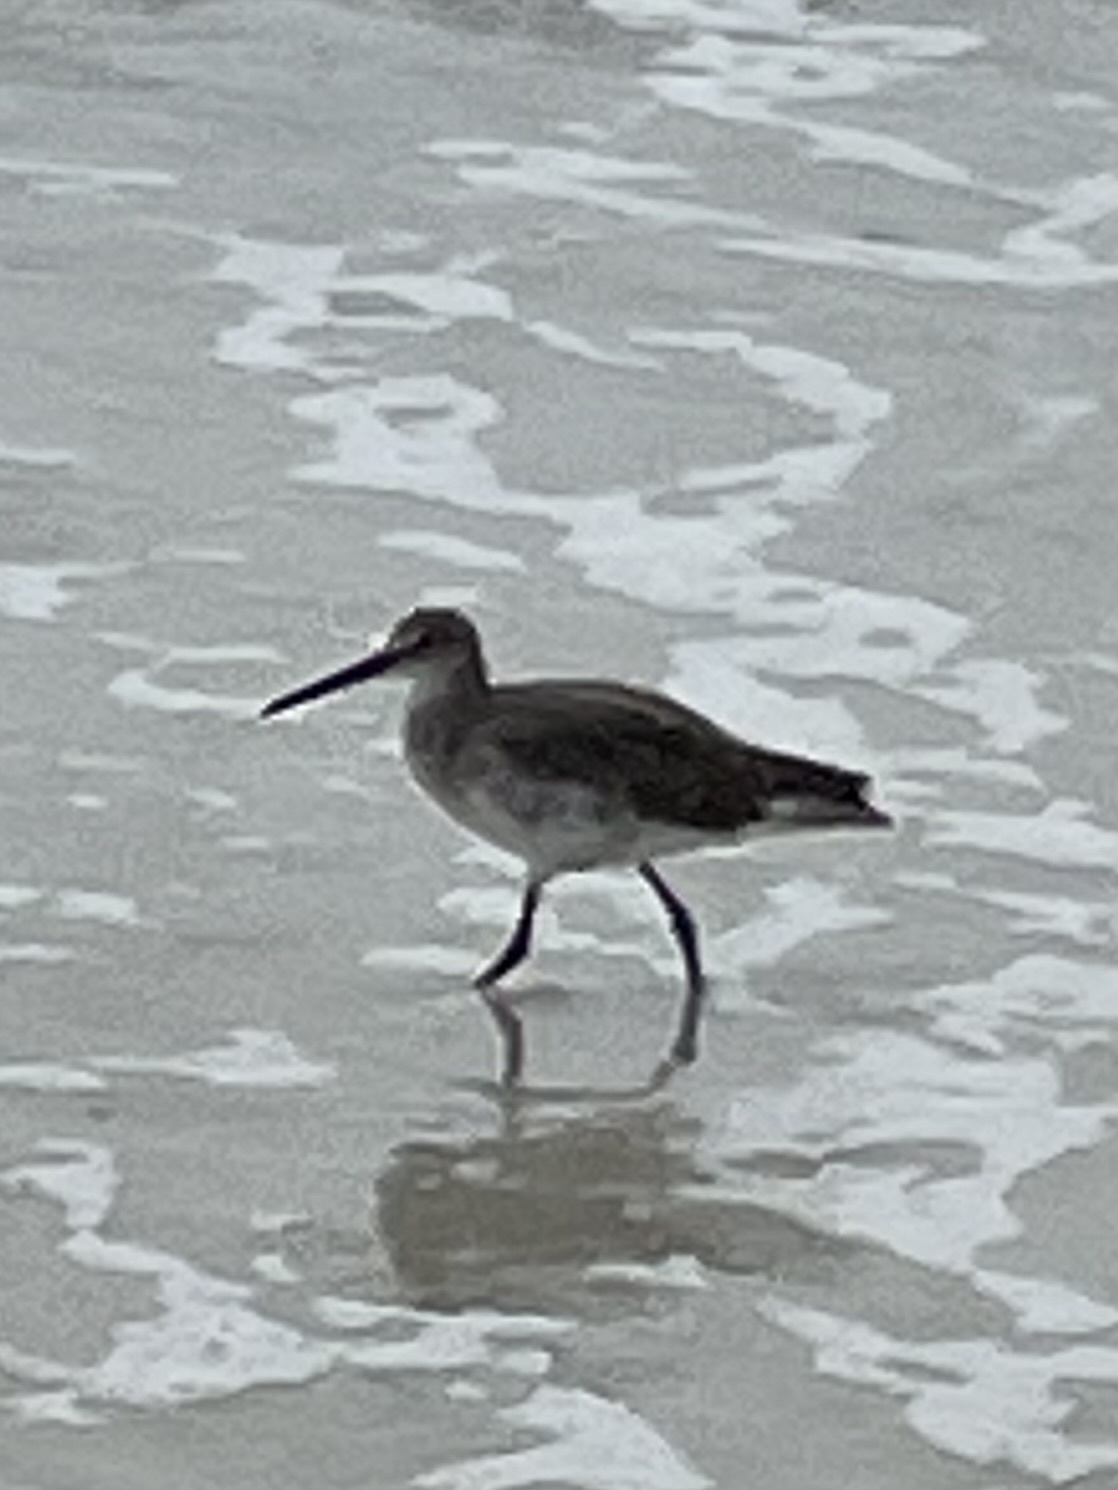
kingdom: Animalia
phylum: Chordata
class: Aves
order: Charadriiformes
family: Scolopacidae
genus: Tringa
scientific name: Tringa semipalmata
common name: Willet
